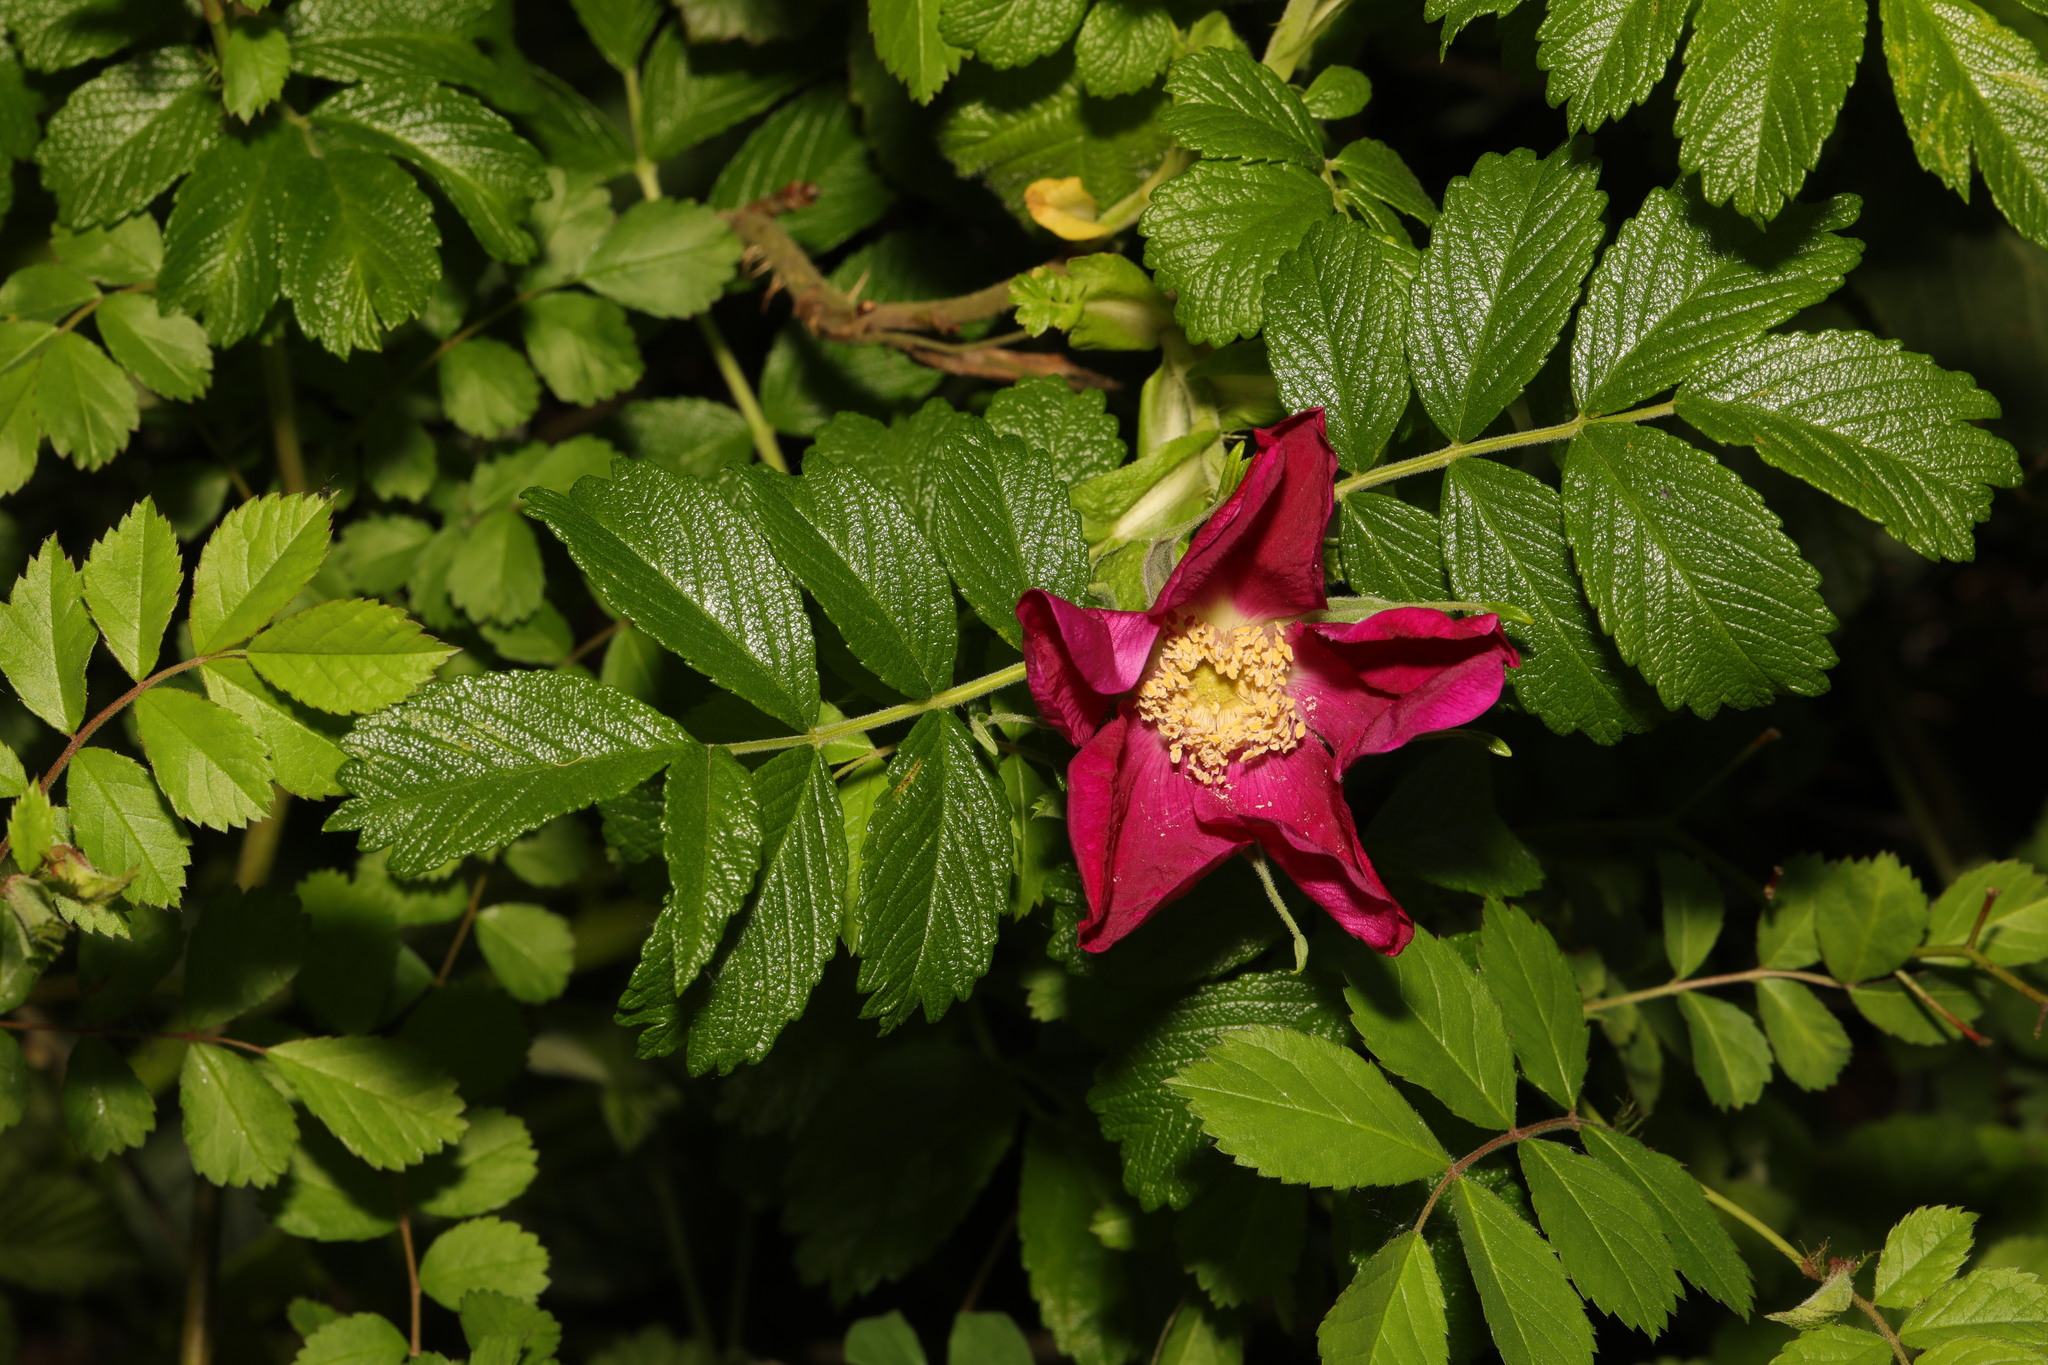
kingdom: Plantae
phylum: Tracheophyta
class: Magnoliopsida
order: Rosales
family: Rosaceae
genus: Rosa
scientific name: Rosa rugosa
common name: Japanese rose
